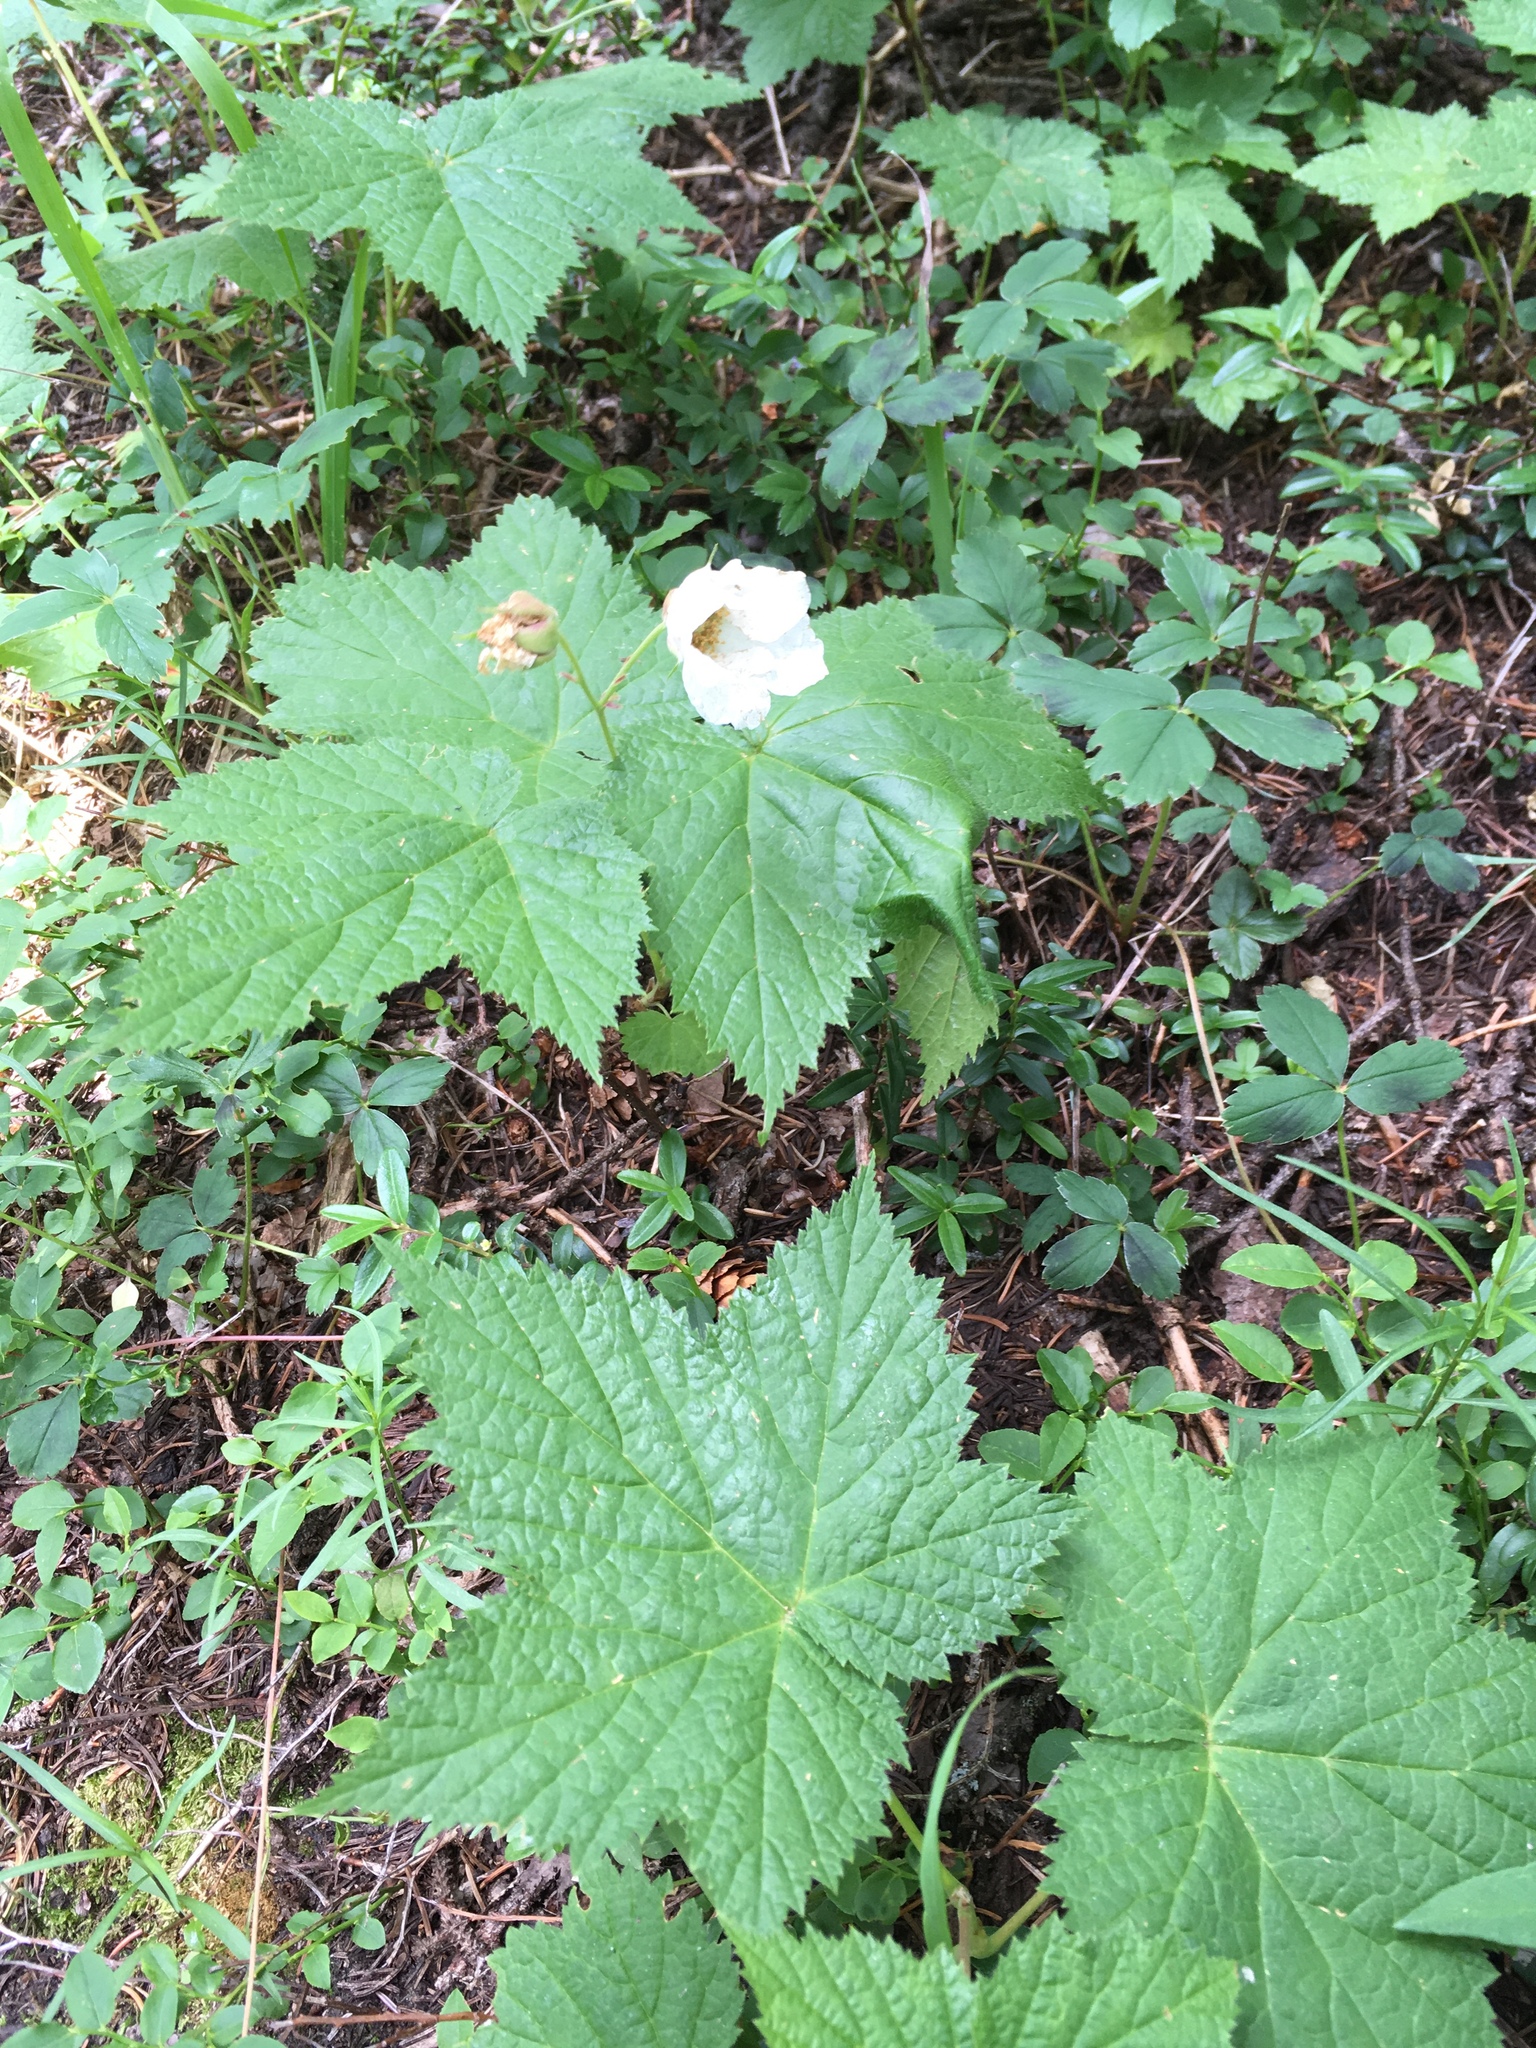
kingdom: Plantae
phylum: Tracheophyta
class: Magnoliopsida
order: Rosales
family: Rosaceae
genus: Rubus
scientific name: Rubus parviflorus
